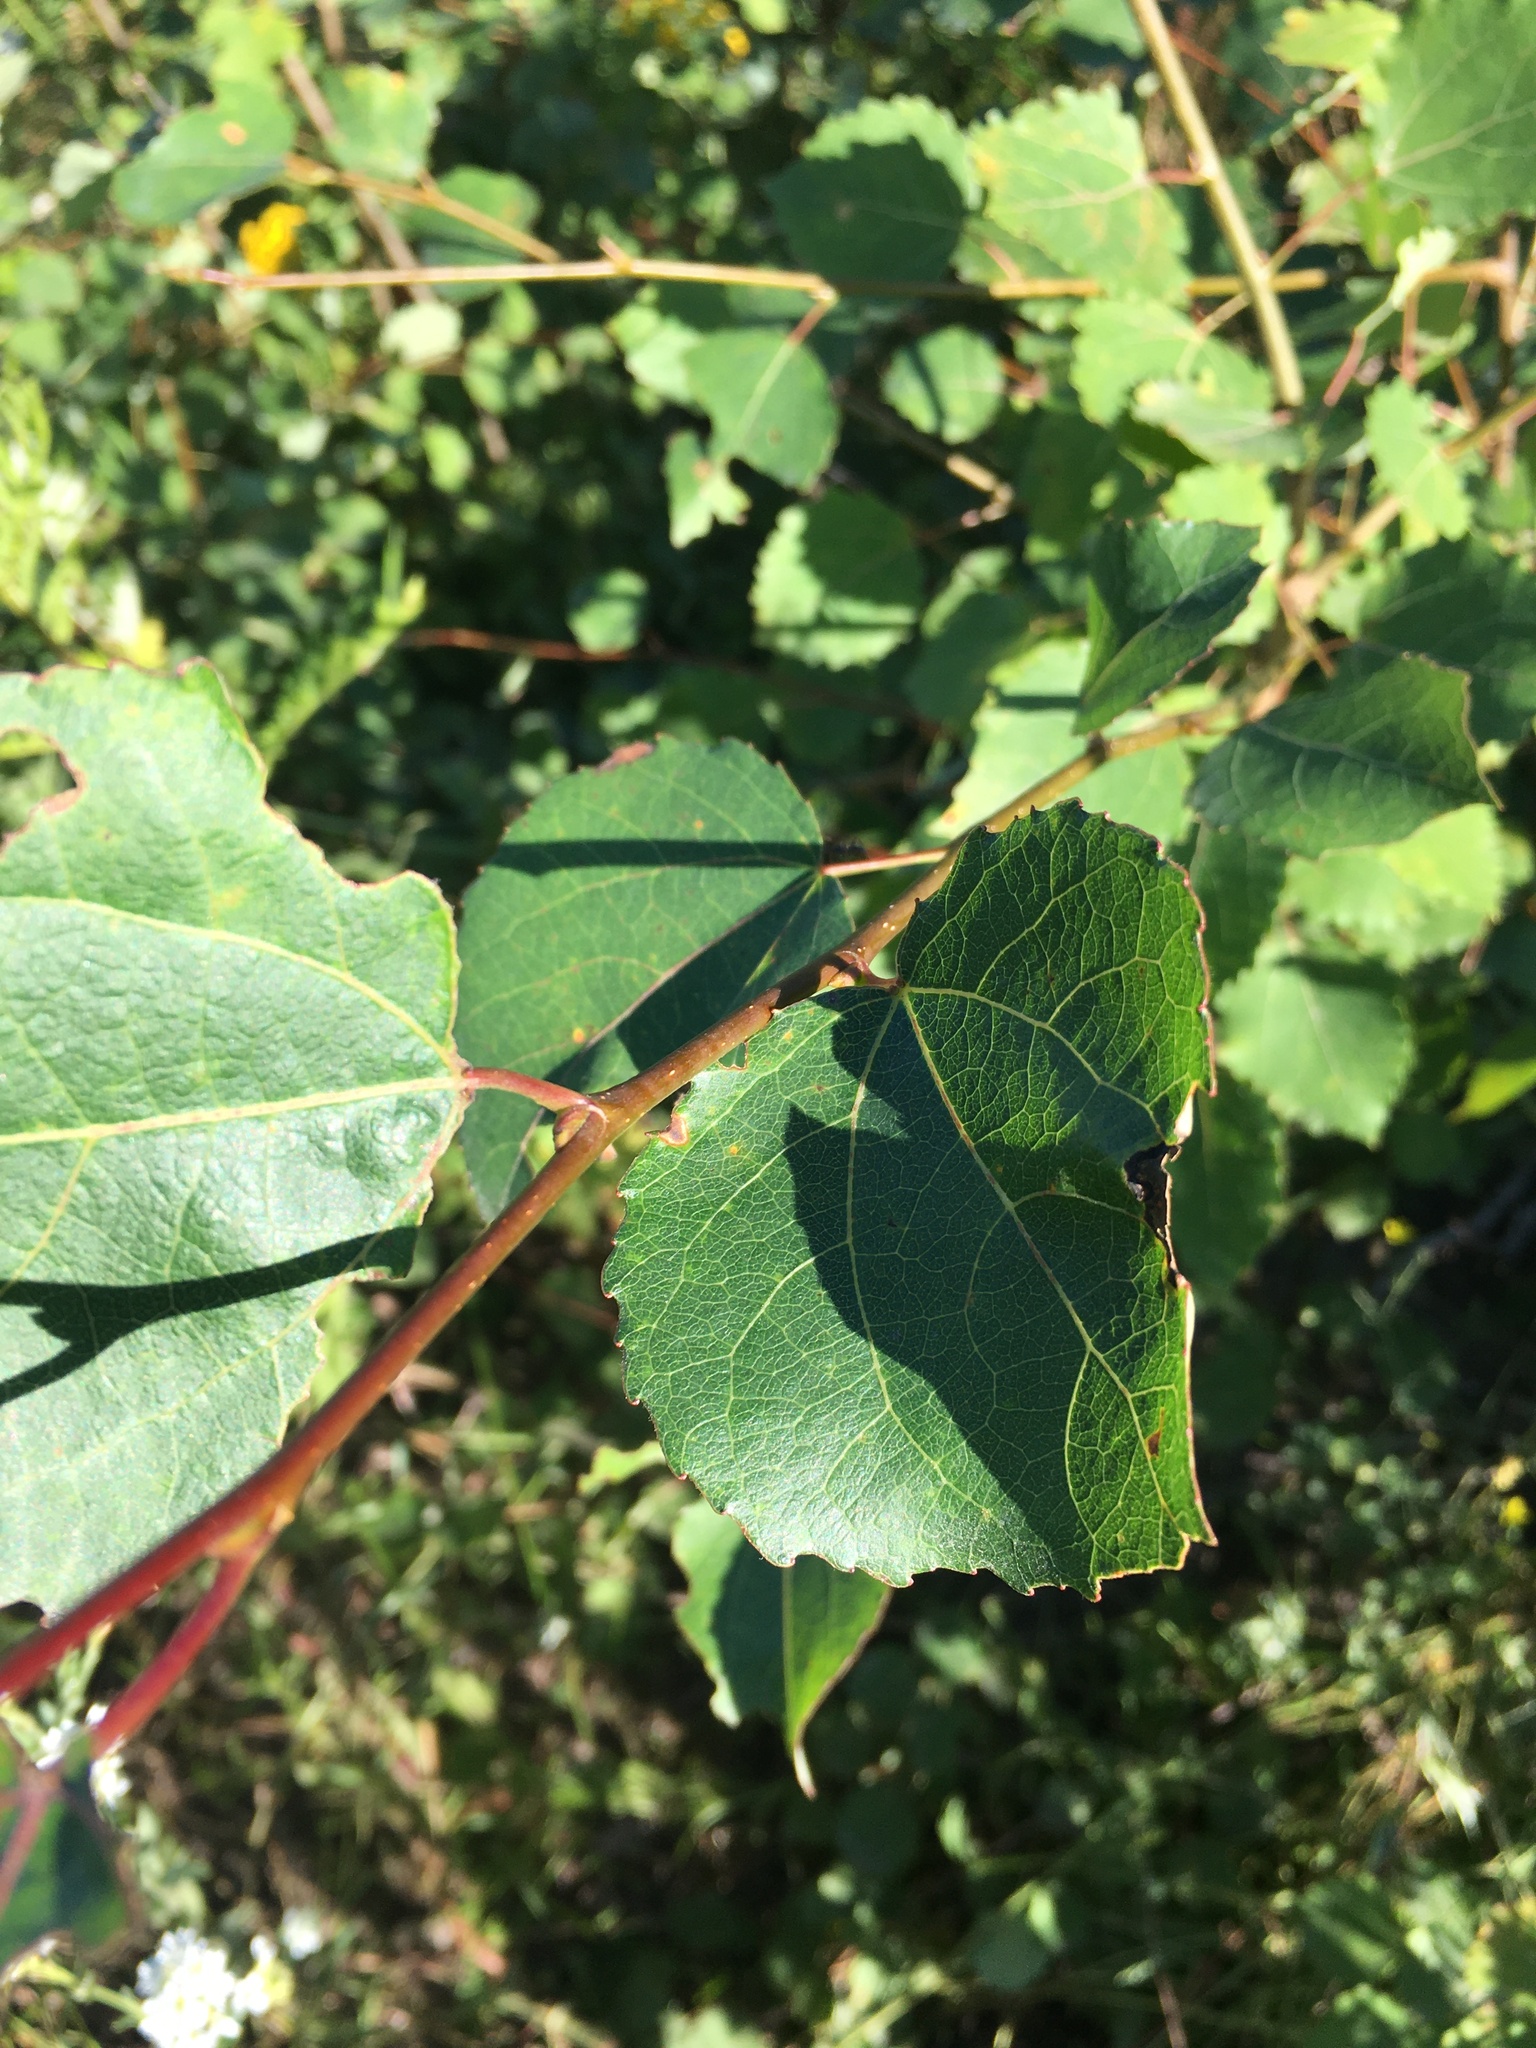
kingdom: Plantae
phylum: Tracheophyta
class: Magnoliopsida
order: Malpighiales
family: Salicaceae
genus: Populus
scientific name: Populus tremula
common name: European aspen
